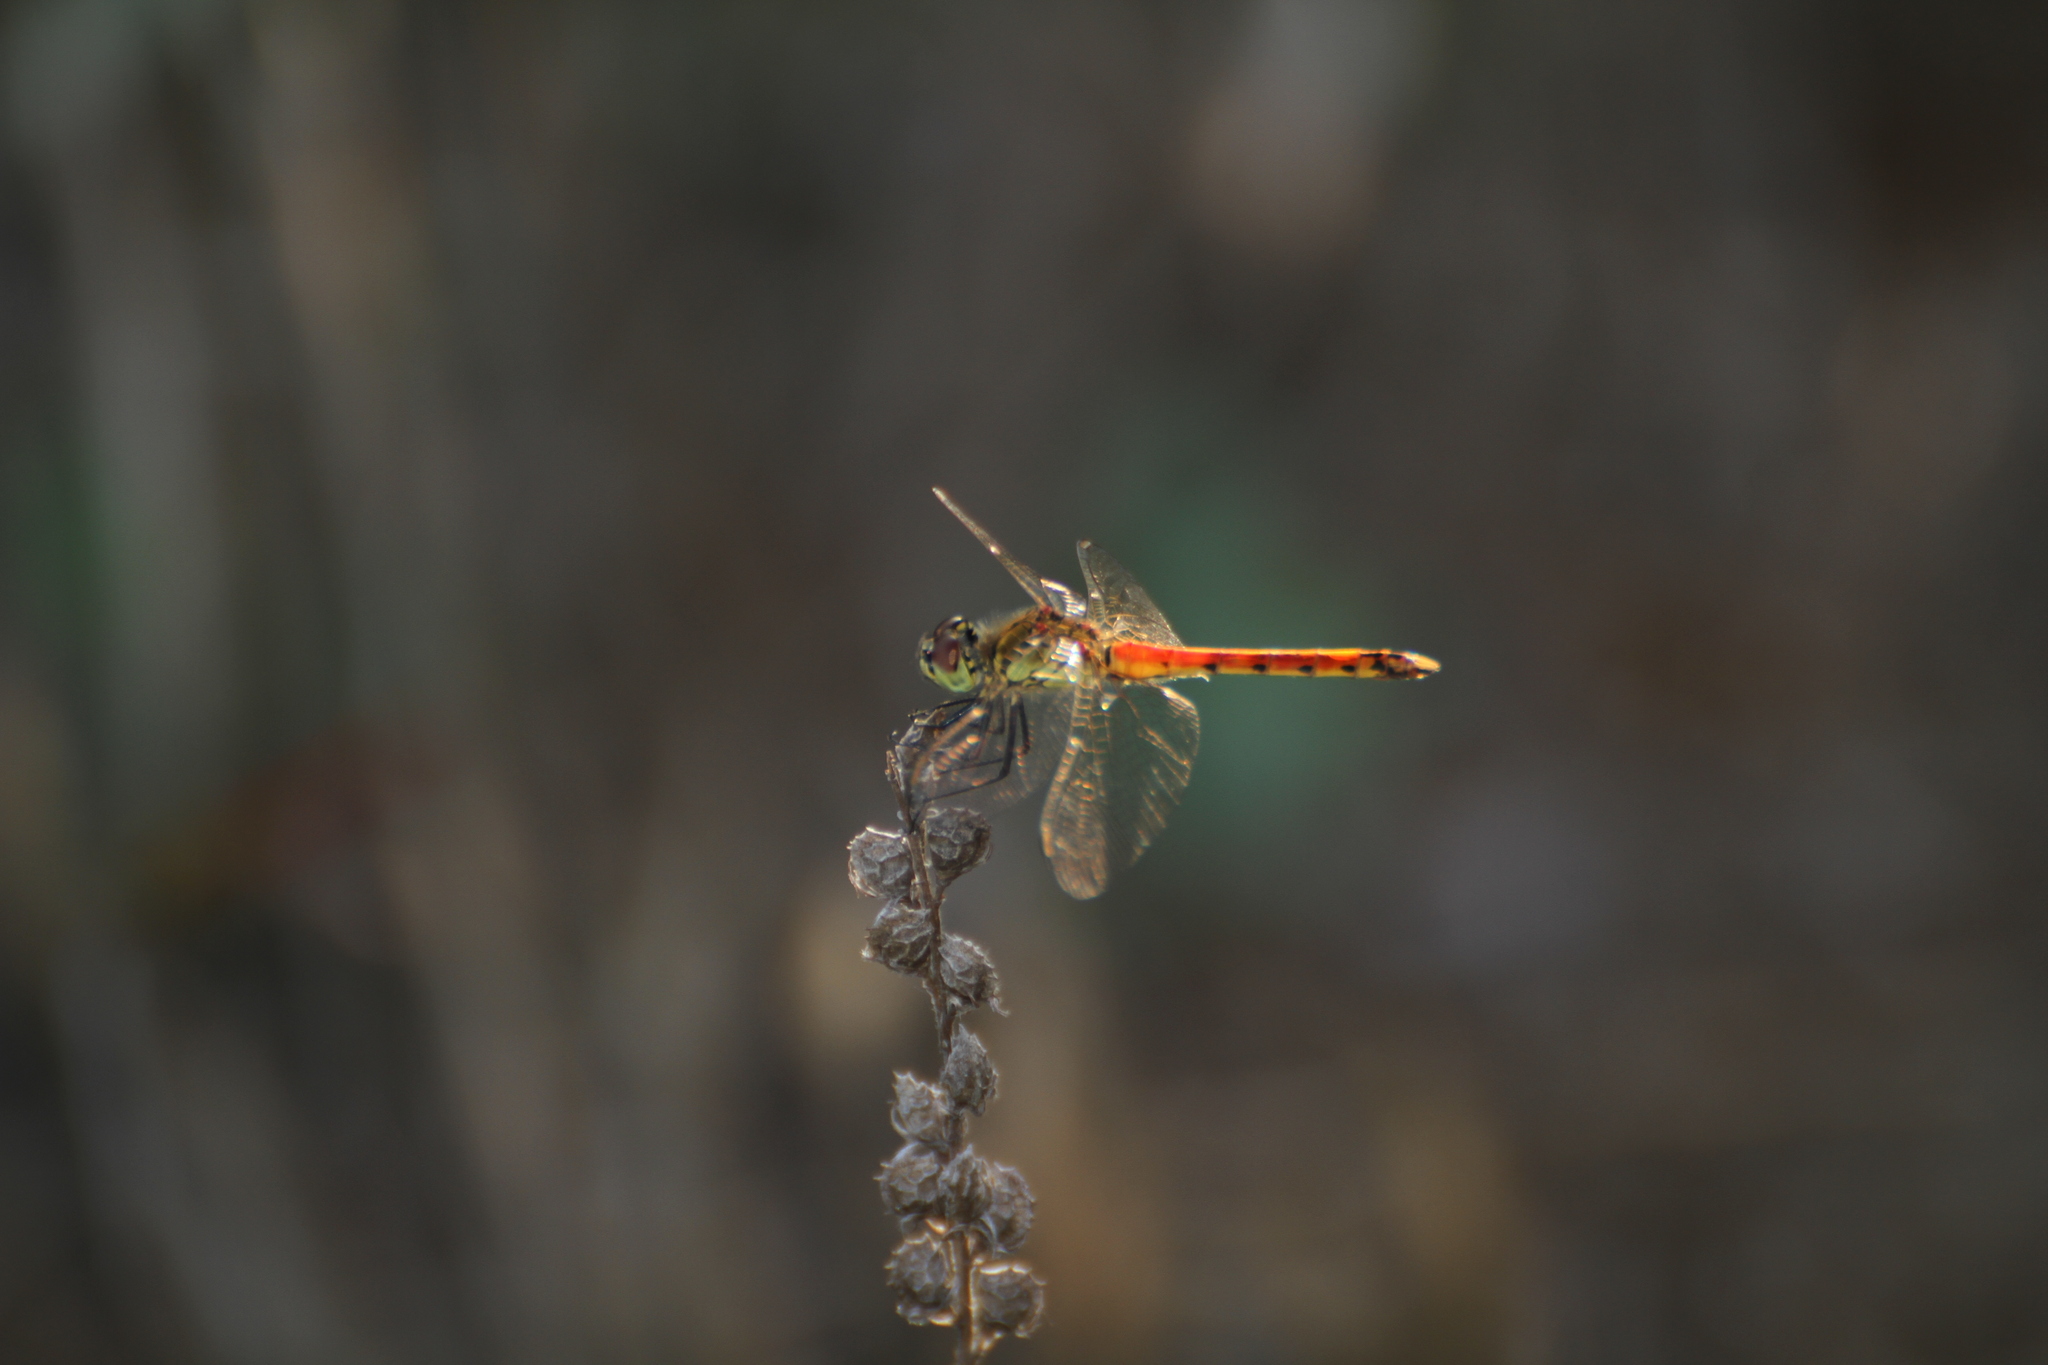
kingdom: Animalia
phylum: Arthropoda
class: Insecta
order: Odonata
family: Libellulidae
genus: Sympetrum
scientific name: Sympetrum depressiusculum
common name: Spotted darter
